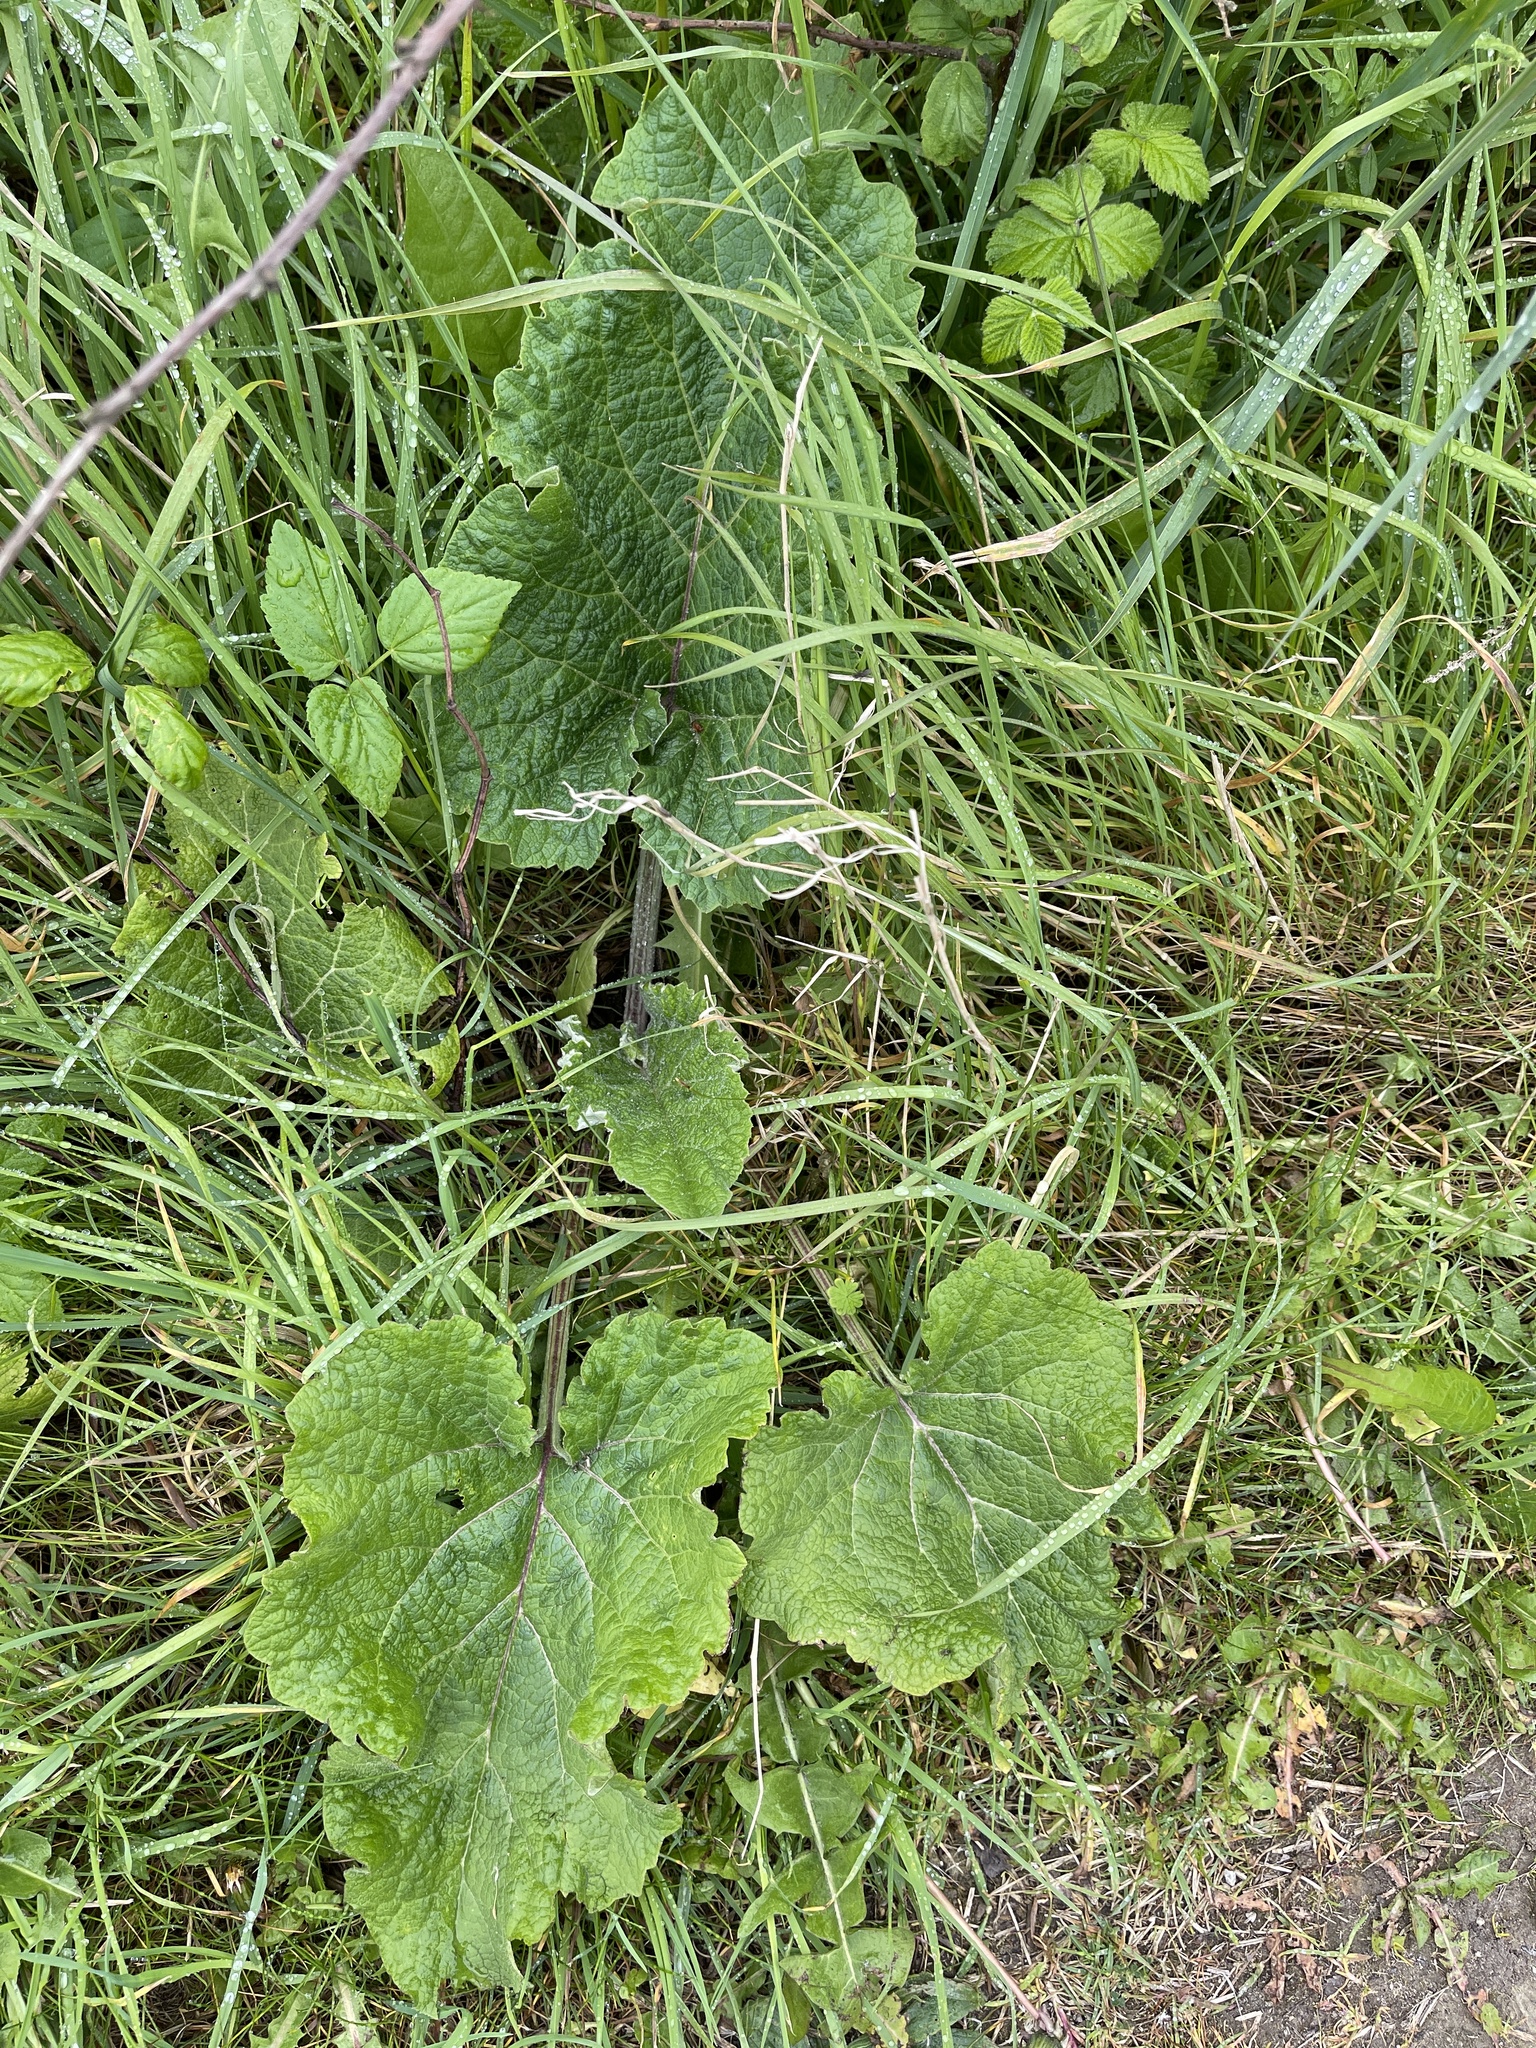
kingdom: Plantae
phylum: Tracheophyta
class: Magnoliopsida
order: Asterales
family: Asteraceae
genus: Arctium
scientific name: Arctium minus
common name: Lesser burdock
